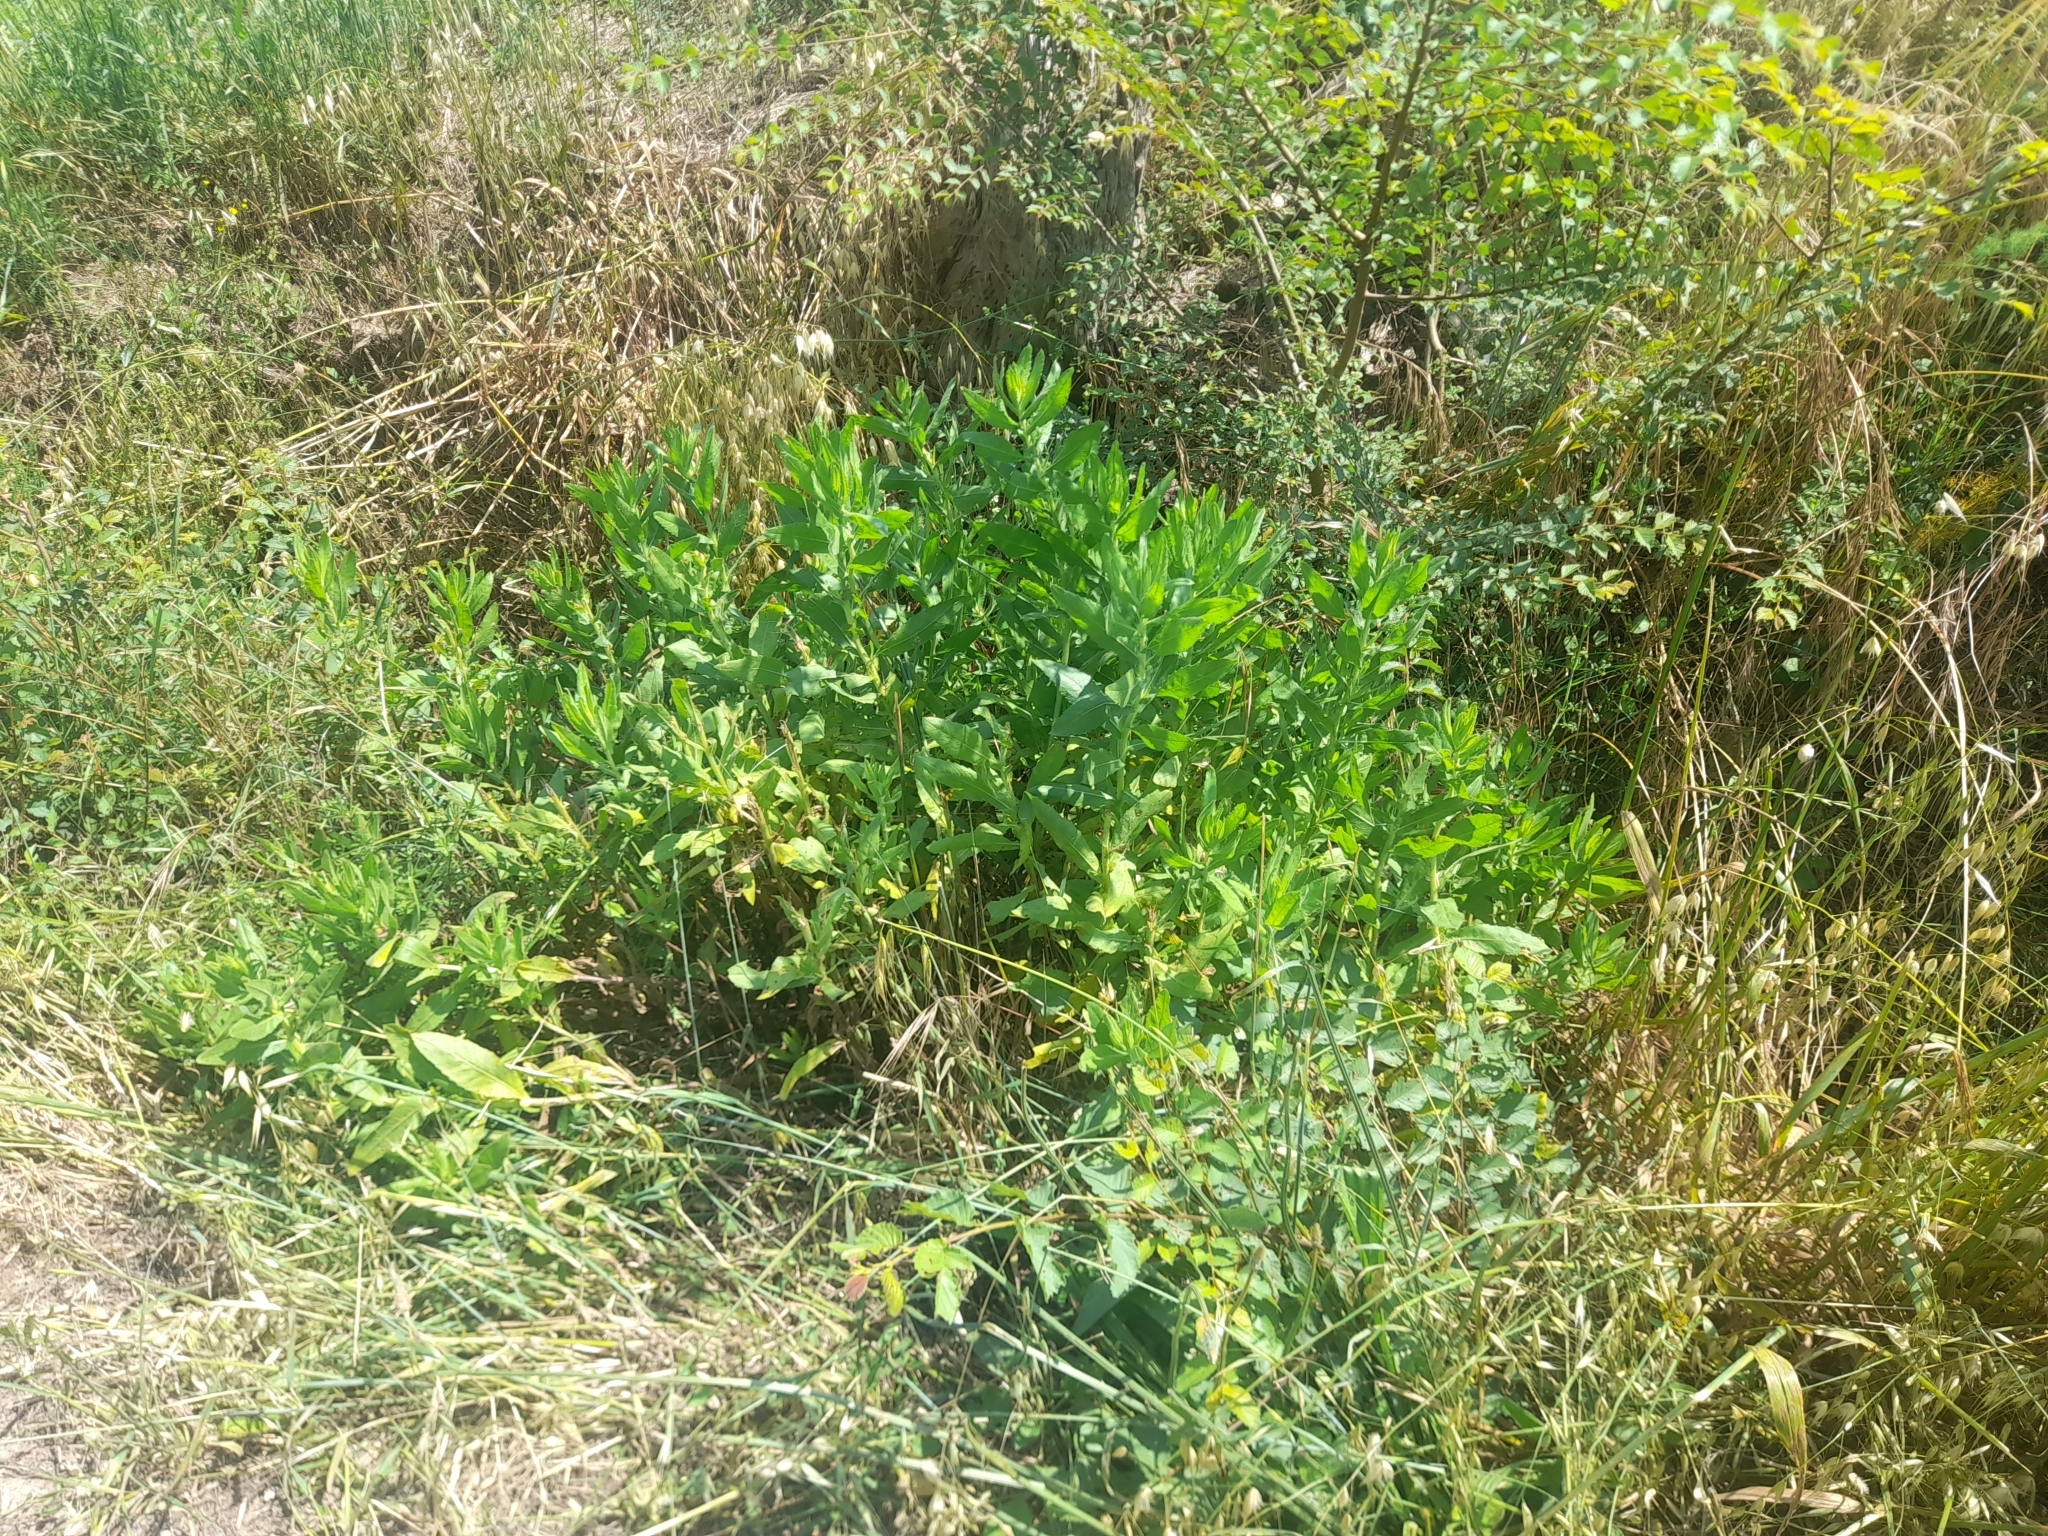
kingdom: Plantae
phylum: Tracheophyta
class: Magnoliopsida
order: Asterales
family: Asteraceae
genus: Dittrichia
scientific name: Dittrichia viscosa
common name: Woody fleabane
